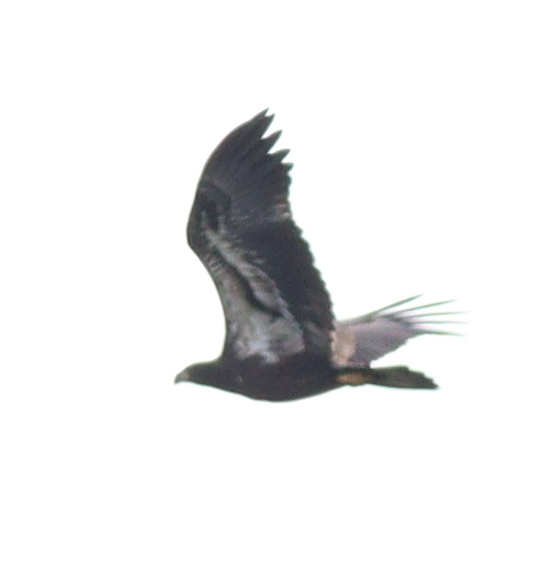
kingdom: Animalia
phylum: Chordata
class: Aves
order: Accipitriformes
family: Accipitridae
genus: Haliaeetus
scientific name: Haliaeetus leucocephalus
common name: Bald eagle
